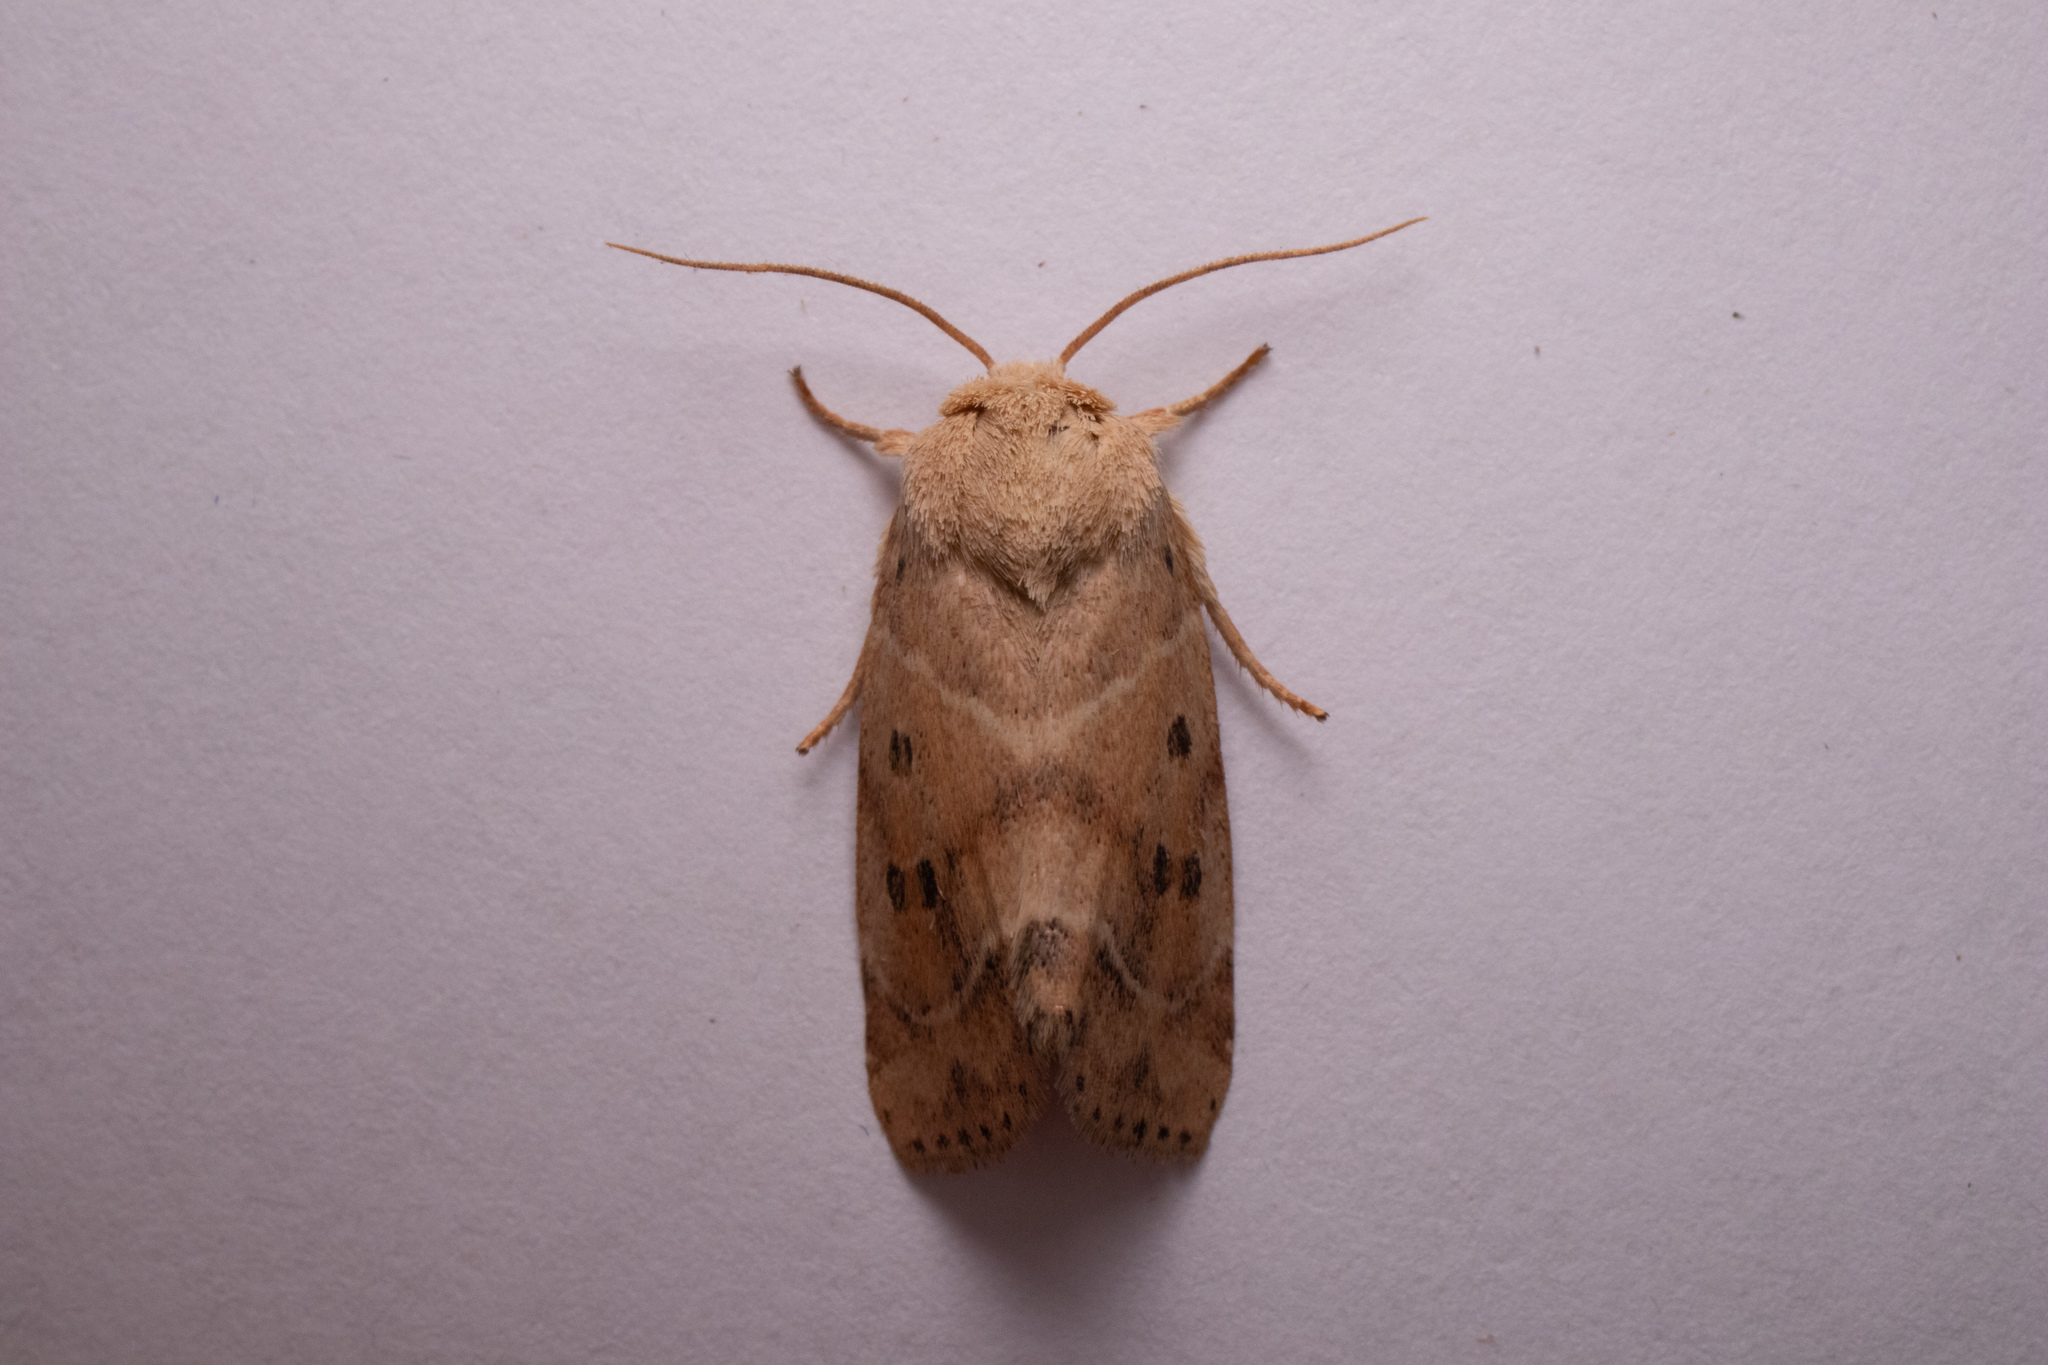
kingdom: Animalia
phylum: Arthropoda
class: Insecta
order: Lepidoptera
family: Noctuidae
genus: Cosmia
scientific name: Cosmia calami
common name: American dun-bar moth
